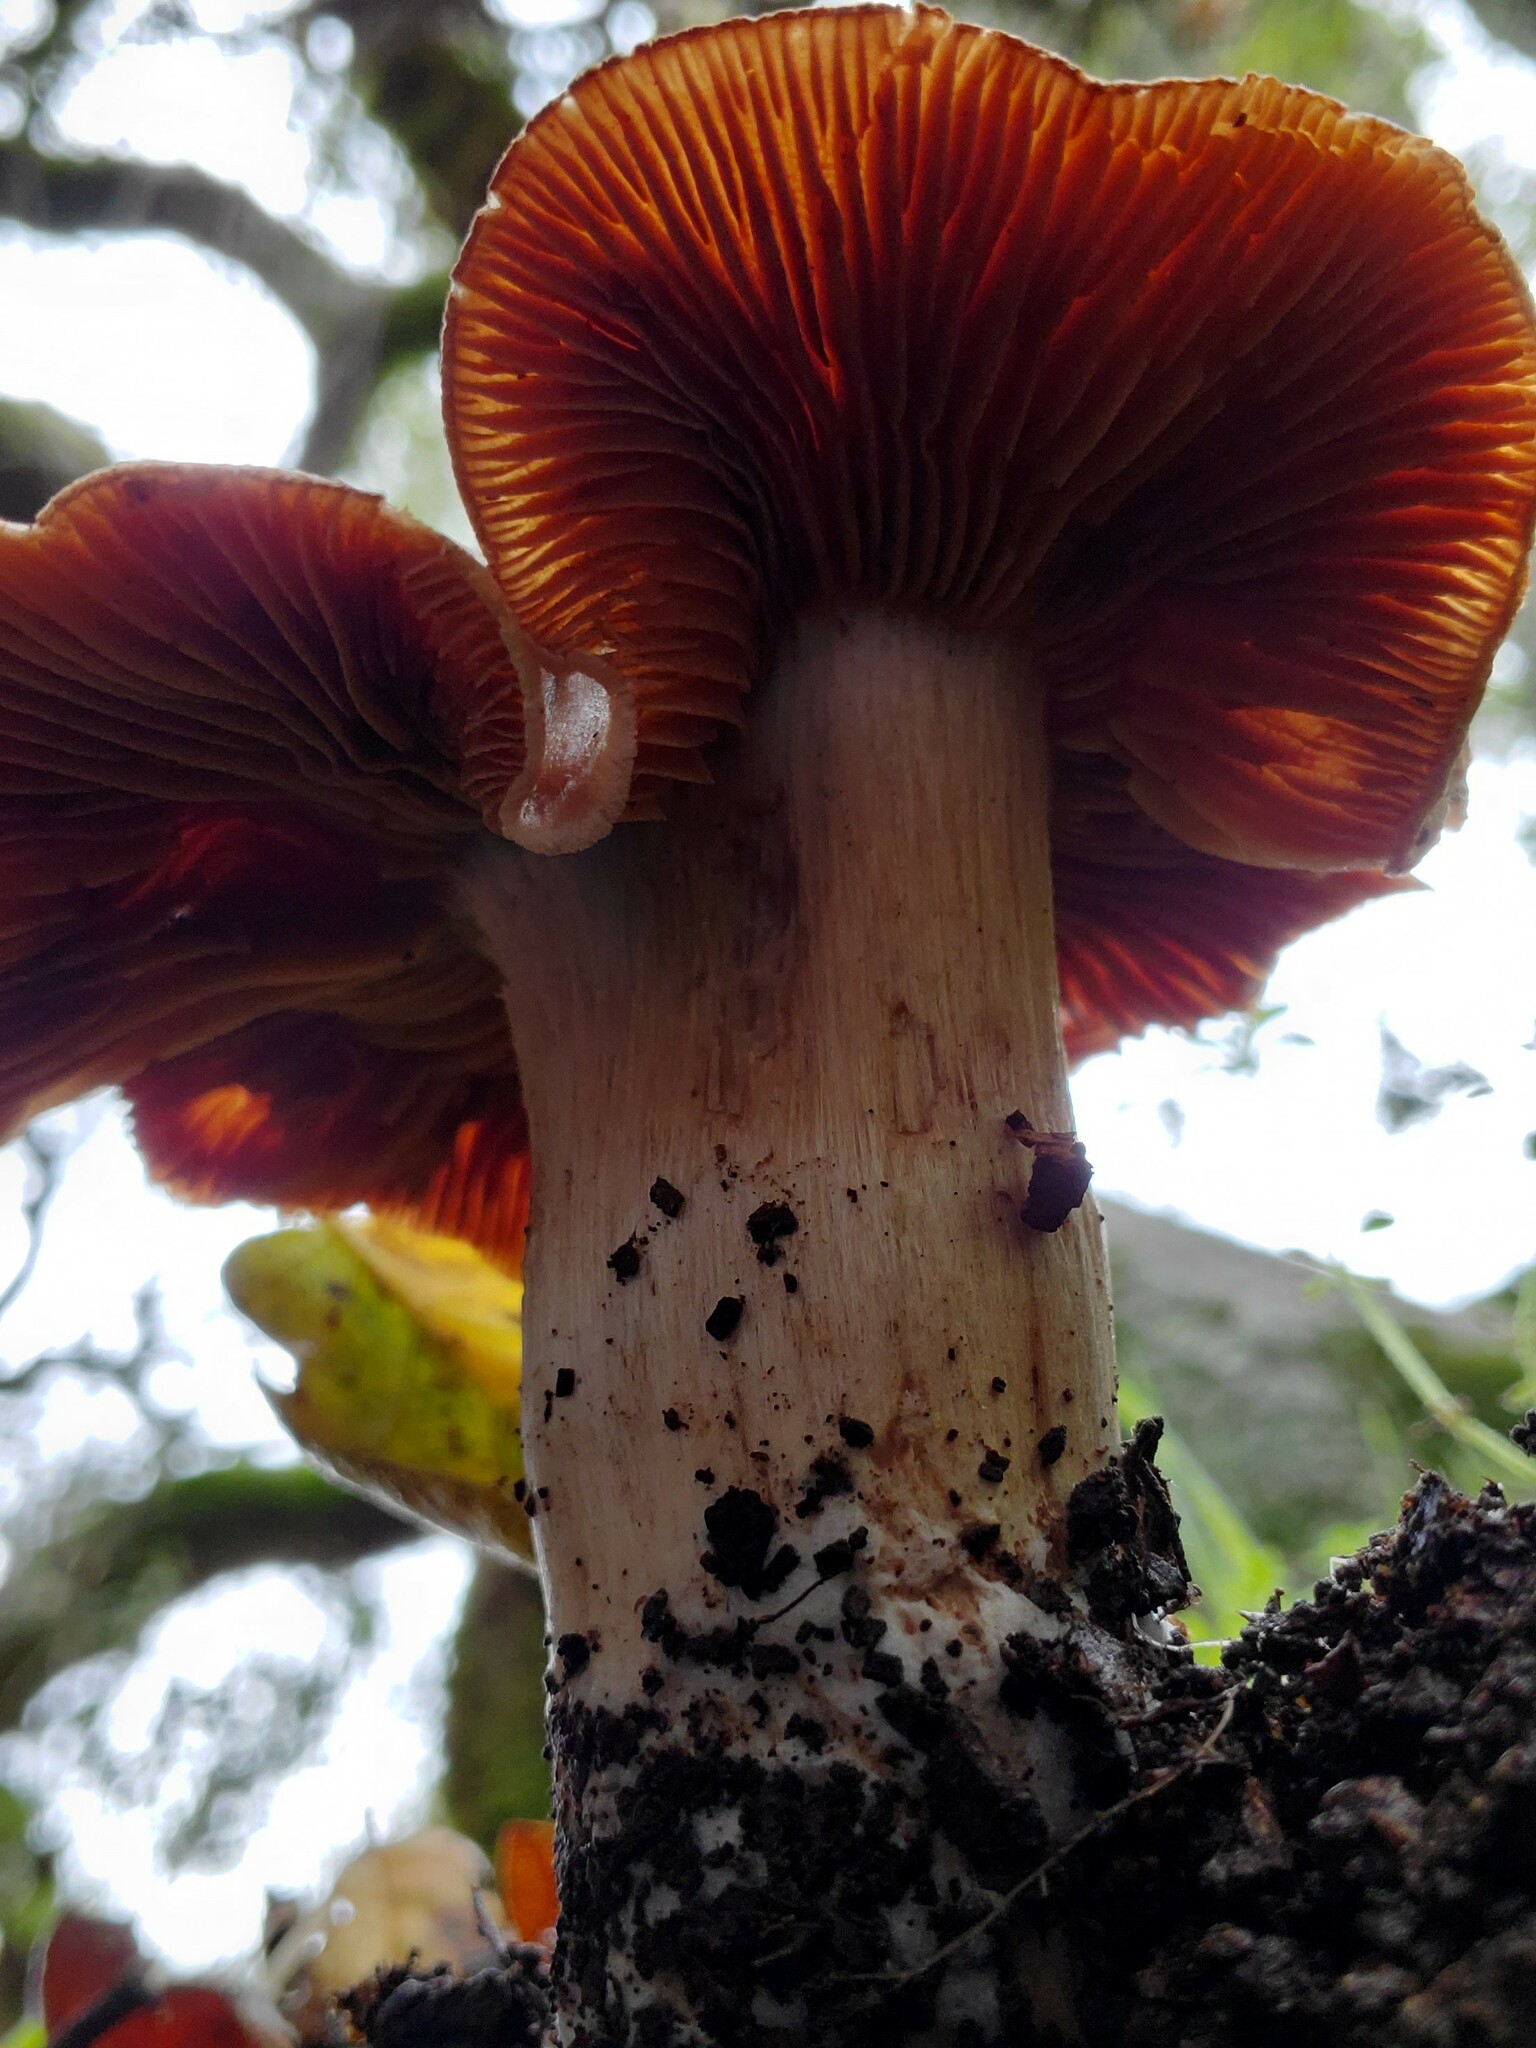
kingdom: Fungi
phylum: Basidiomycota
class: Agaricomycetes
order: Agaricales
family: Cortinariaceae
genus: Cortinarius
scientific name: Cortinarius ohlone
